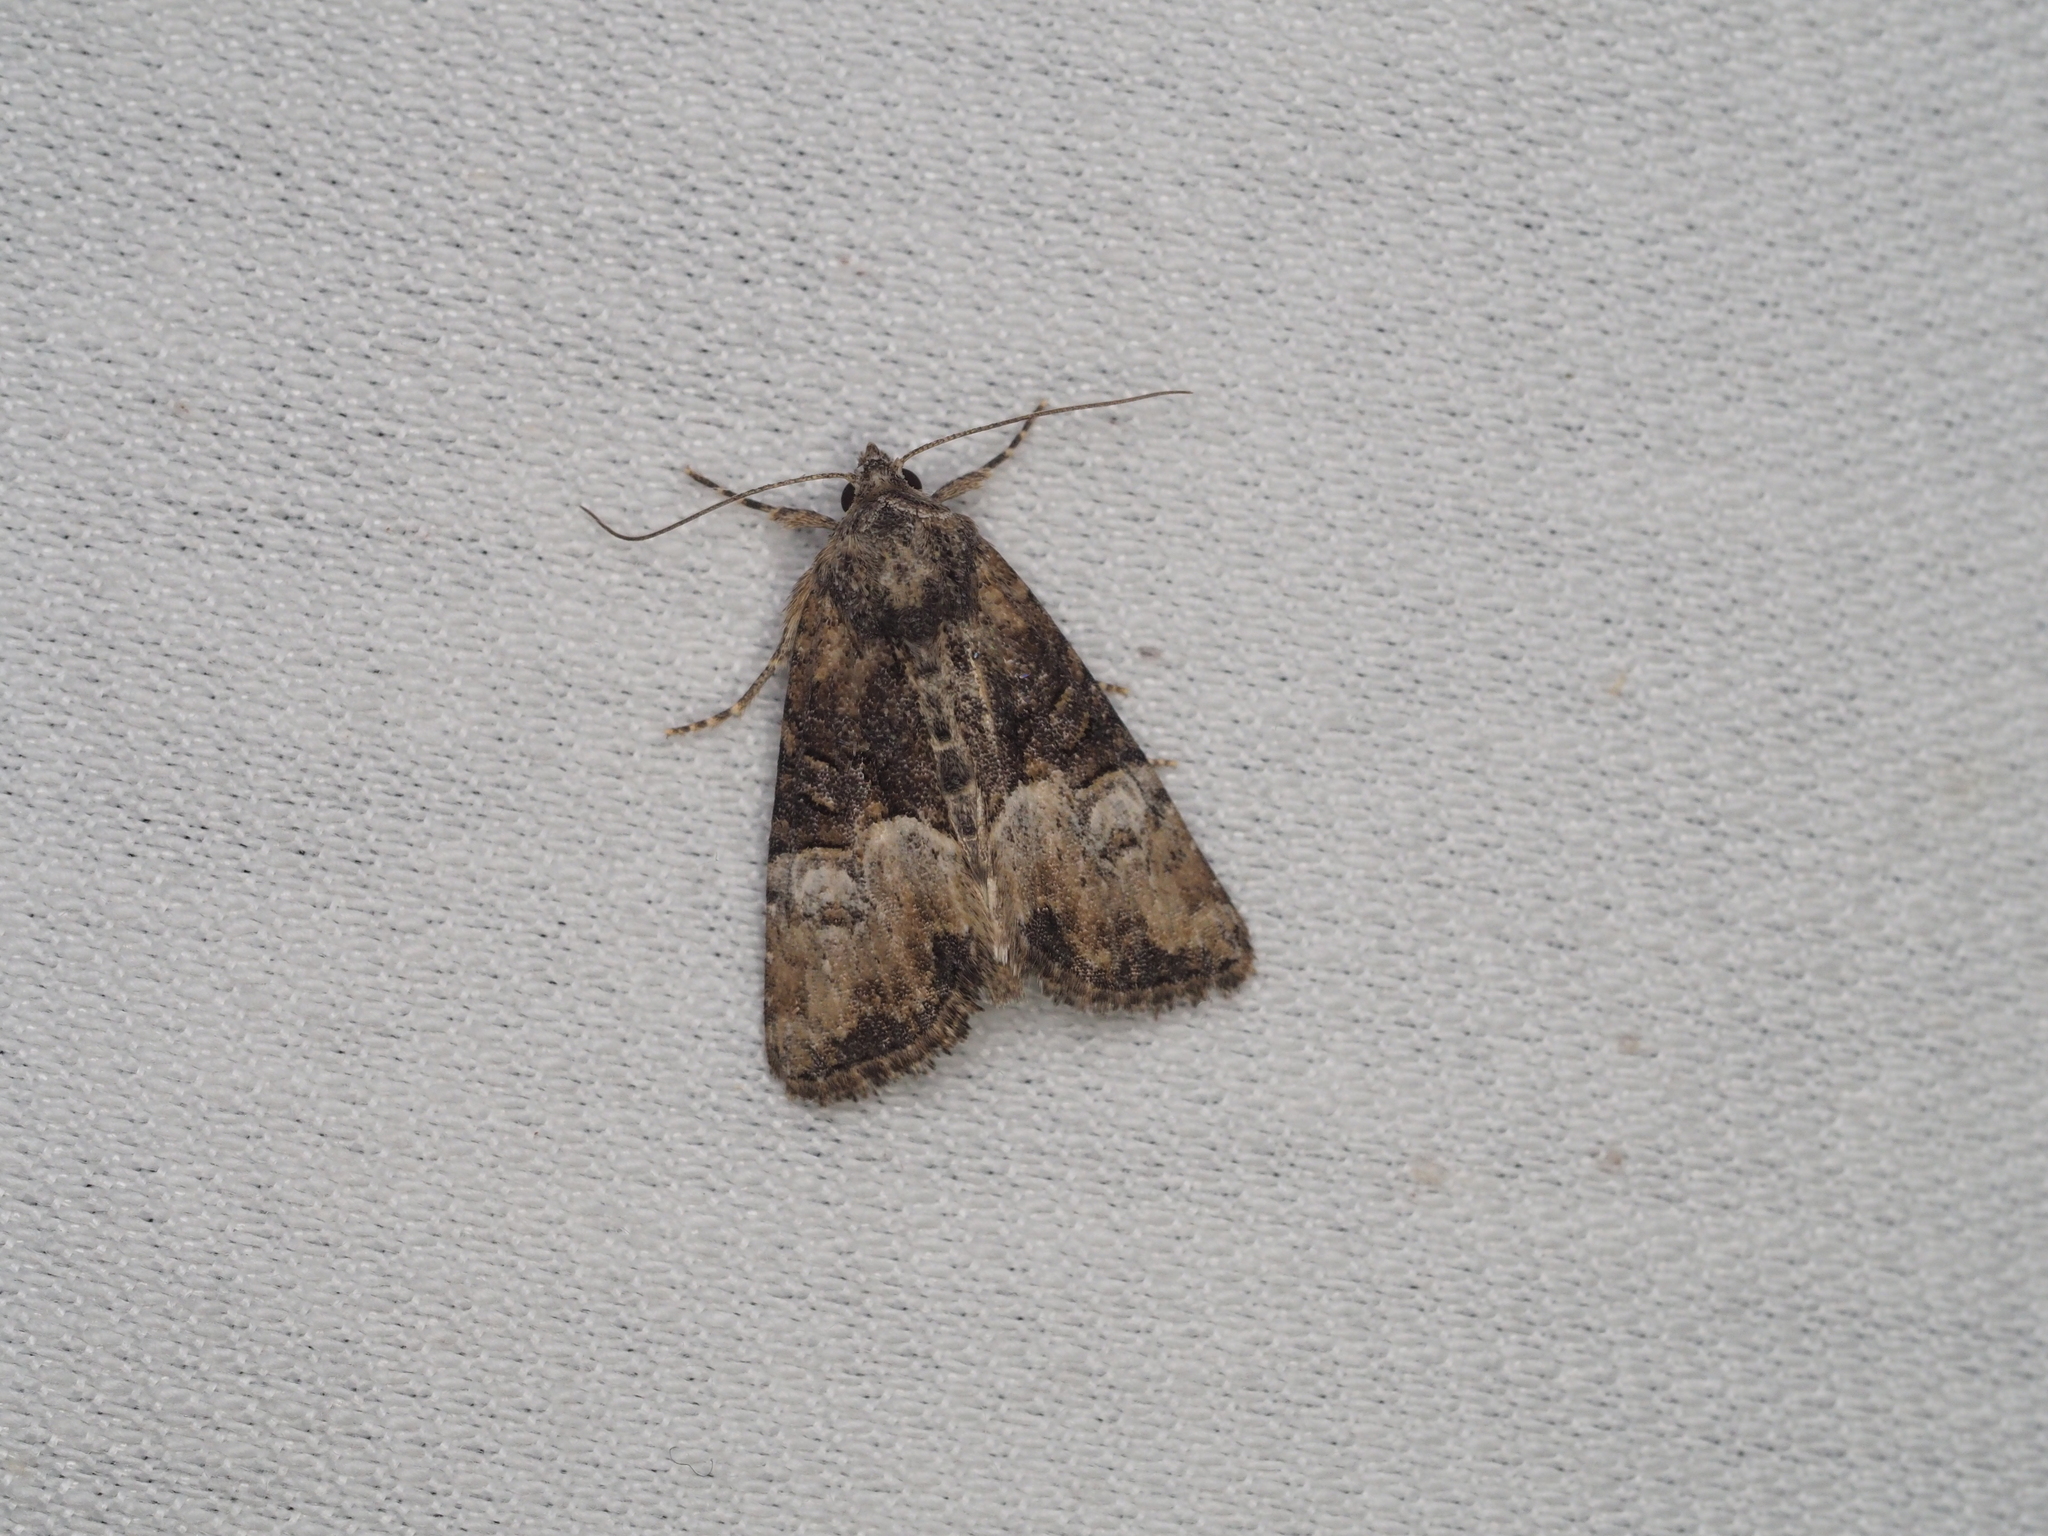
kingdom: Animalia
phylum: Arthropoda
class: Insecta
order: Lepidoptera
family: Noctuidae
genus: Mesoligia
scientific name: Mesoligia furuncula
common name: Cloaked minor
